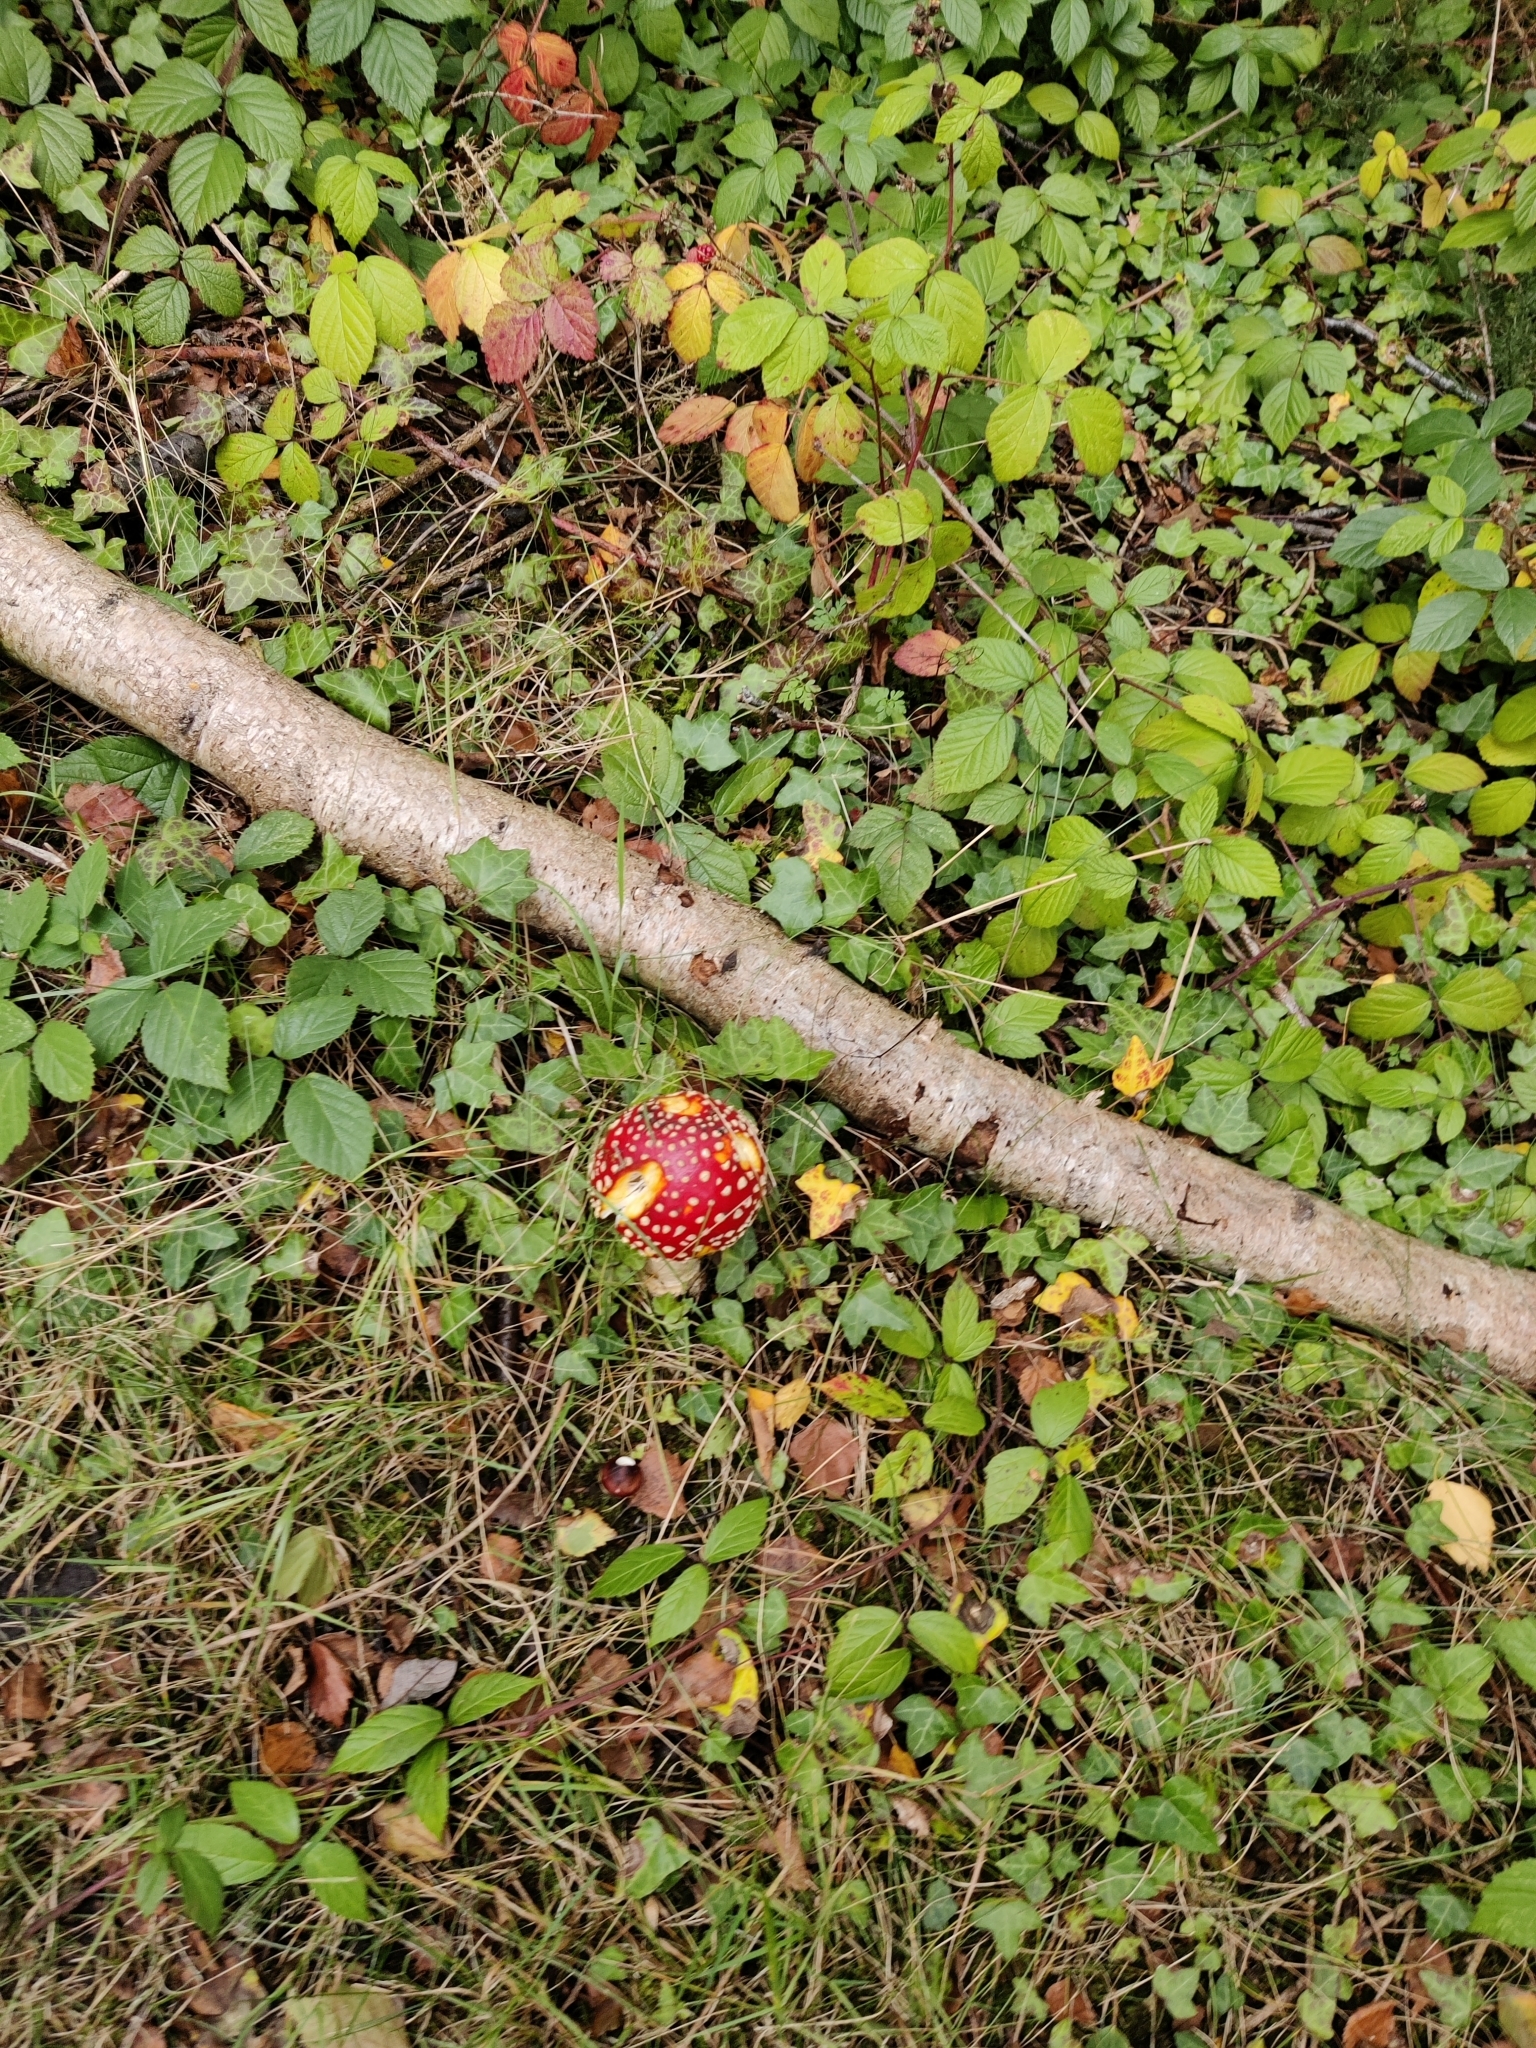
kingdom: Fungi
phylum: Basidiomycota
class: Agaricomycetes
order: Agaricales
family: Amanitaceae
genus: Amanita
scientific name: Amanita muscaria
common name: Fly agaric
